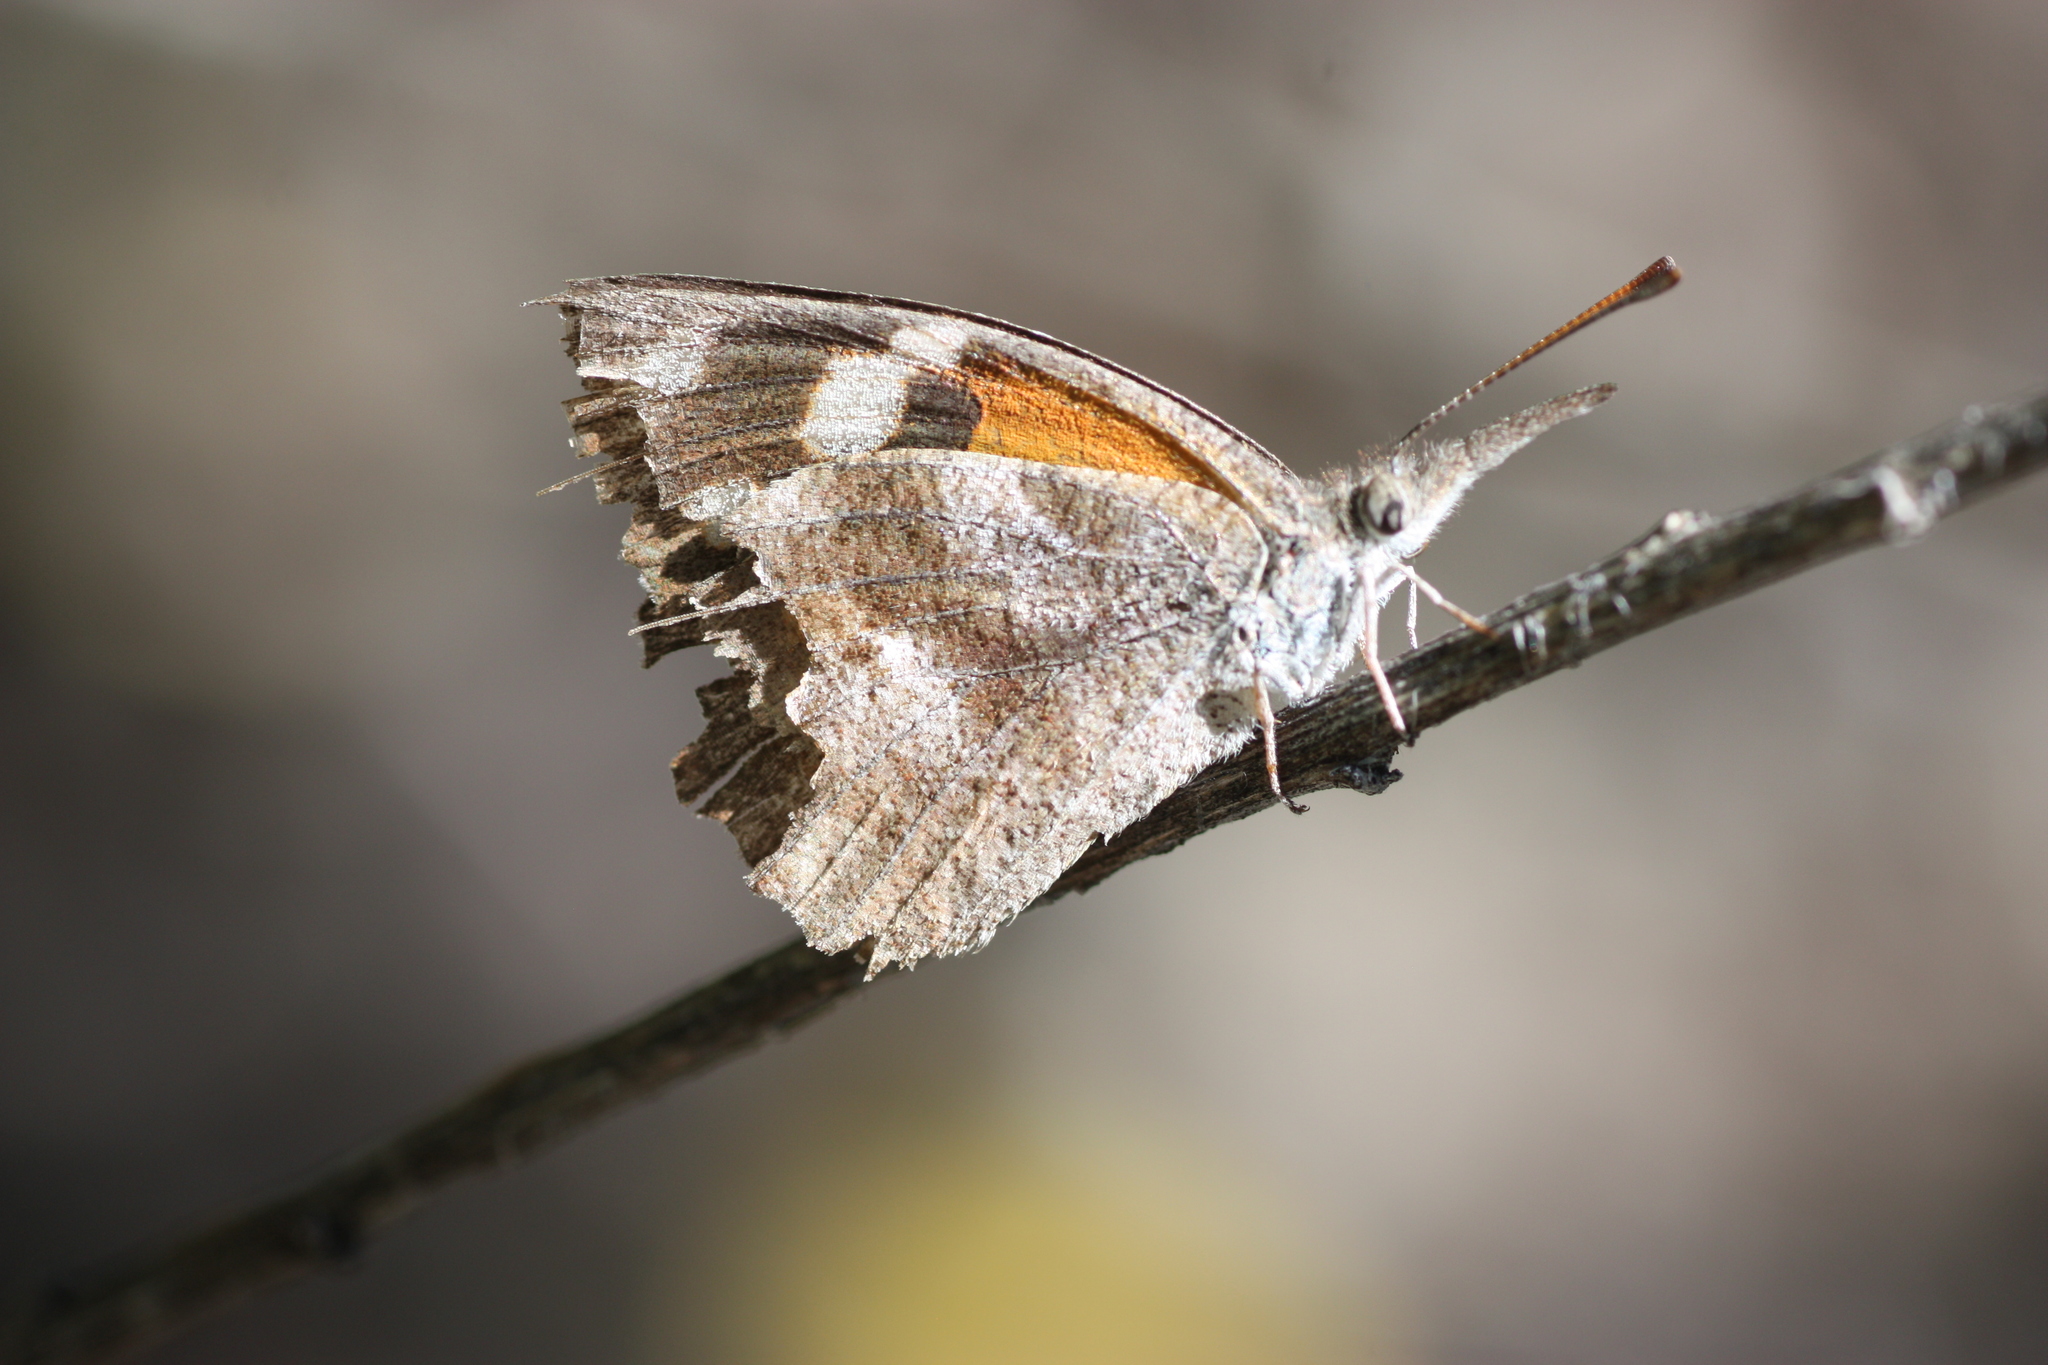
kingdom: Animalia
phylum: Arthropoda
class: Insecta
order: Lepidoptera
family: Nymphalidae
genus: Libytheana
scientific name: Libytheana carinenta
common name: American snout
